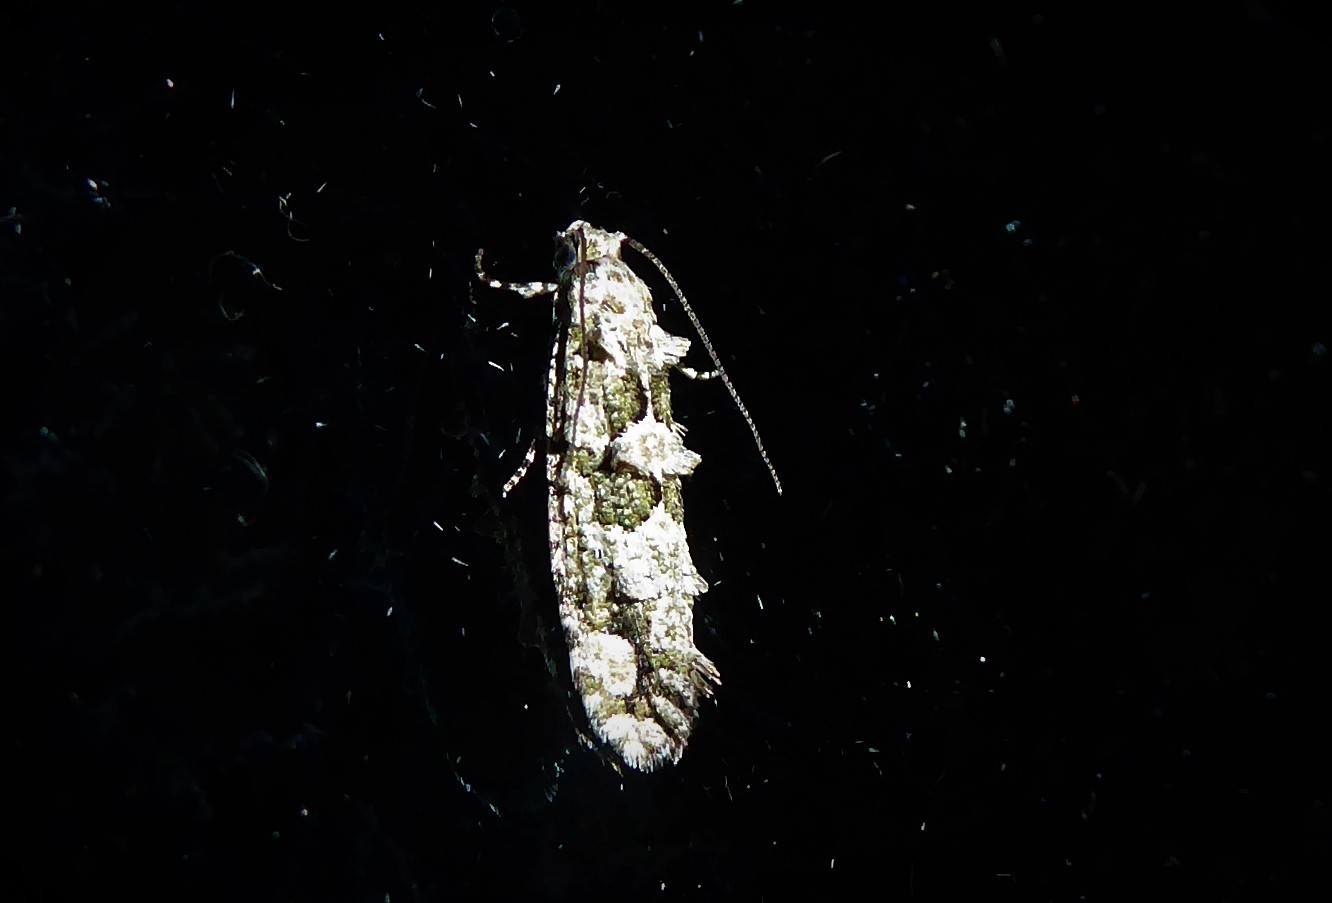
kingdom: Animalia
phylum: Arthropoda
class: Insecta
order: Lepidoptera
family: Tineidae
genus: Lysiphragma
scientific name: Lysiphragma howesii
